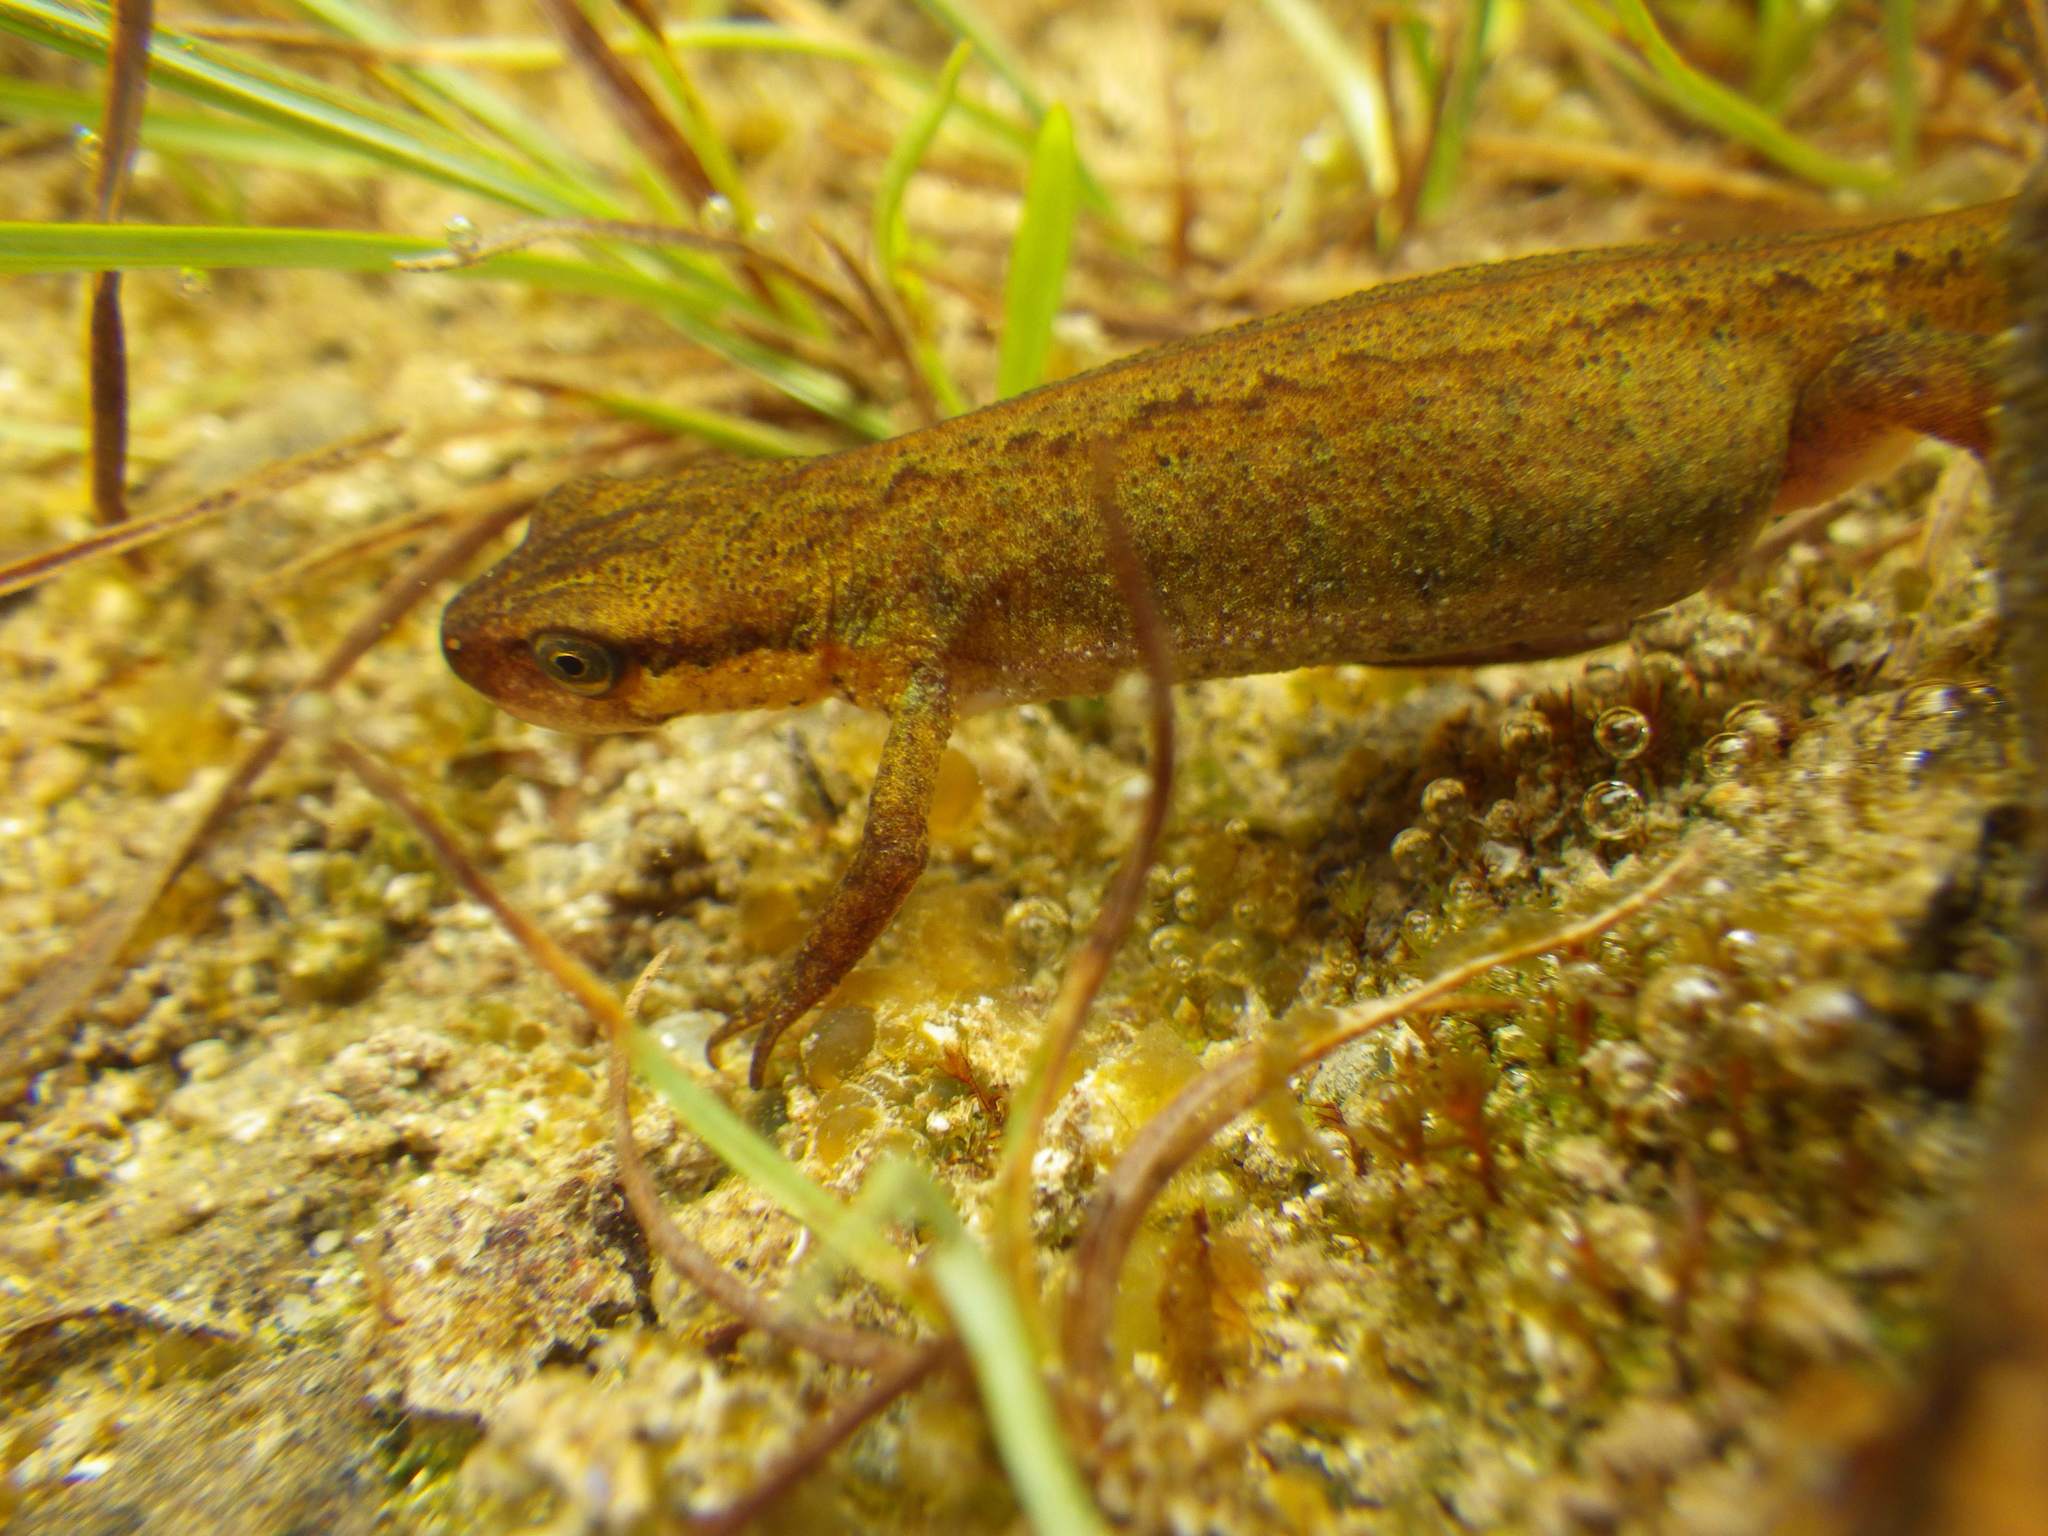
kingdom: Animalia
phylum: Chordata
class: Amphibia
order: Caudata
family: Salamandridae
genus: Lissotriton
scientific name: Lissotriton vulgaris
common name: Smooth newt
